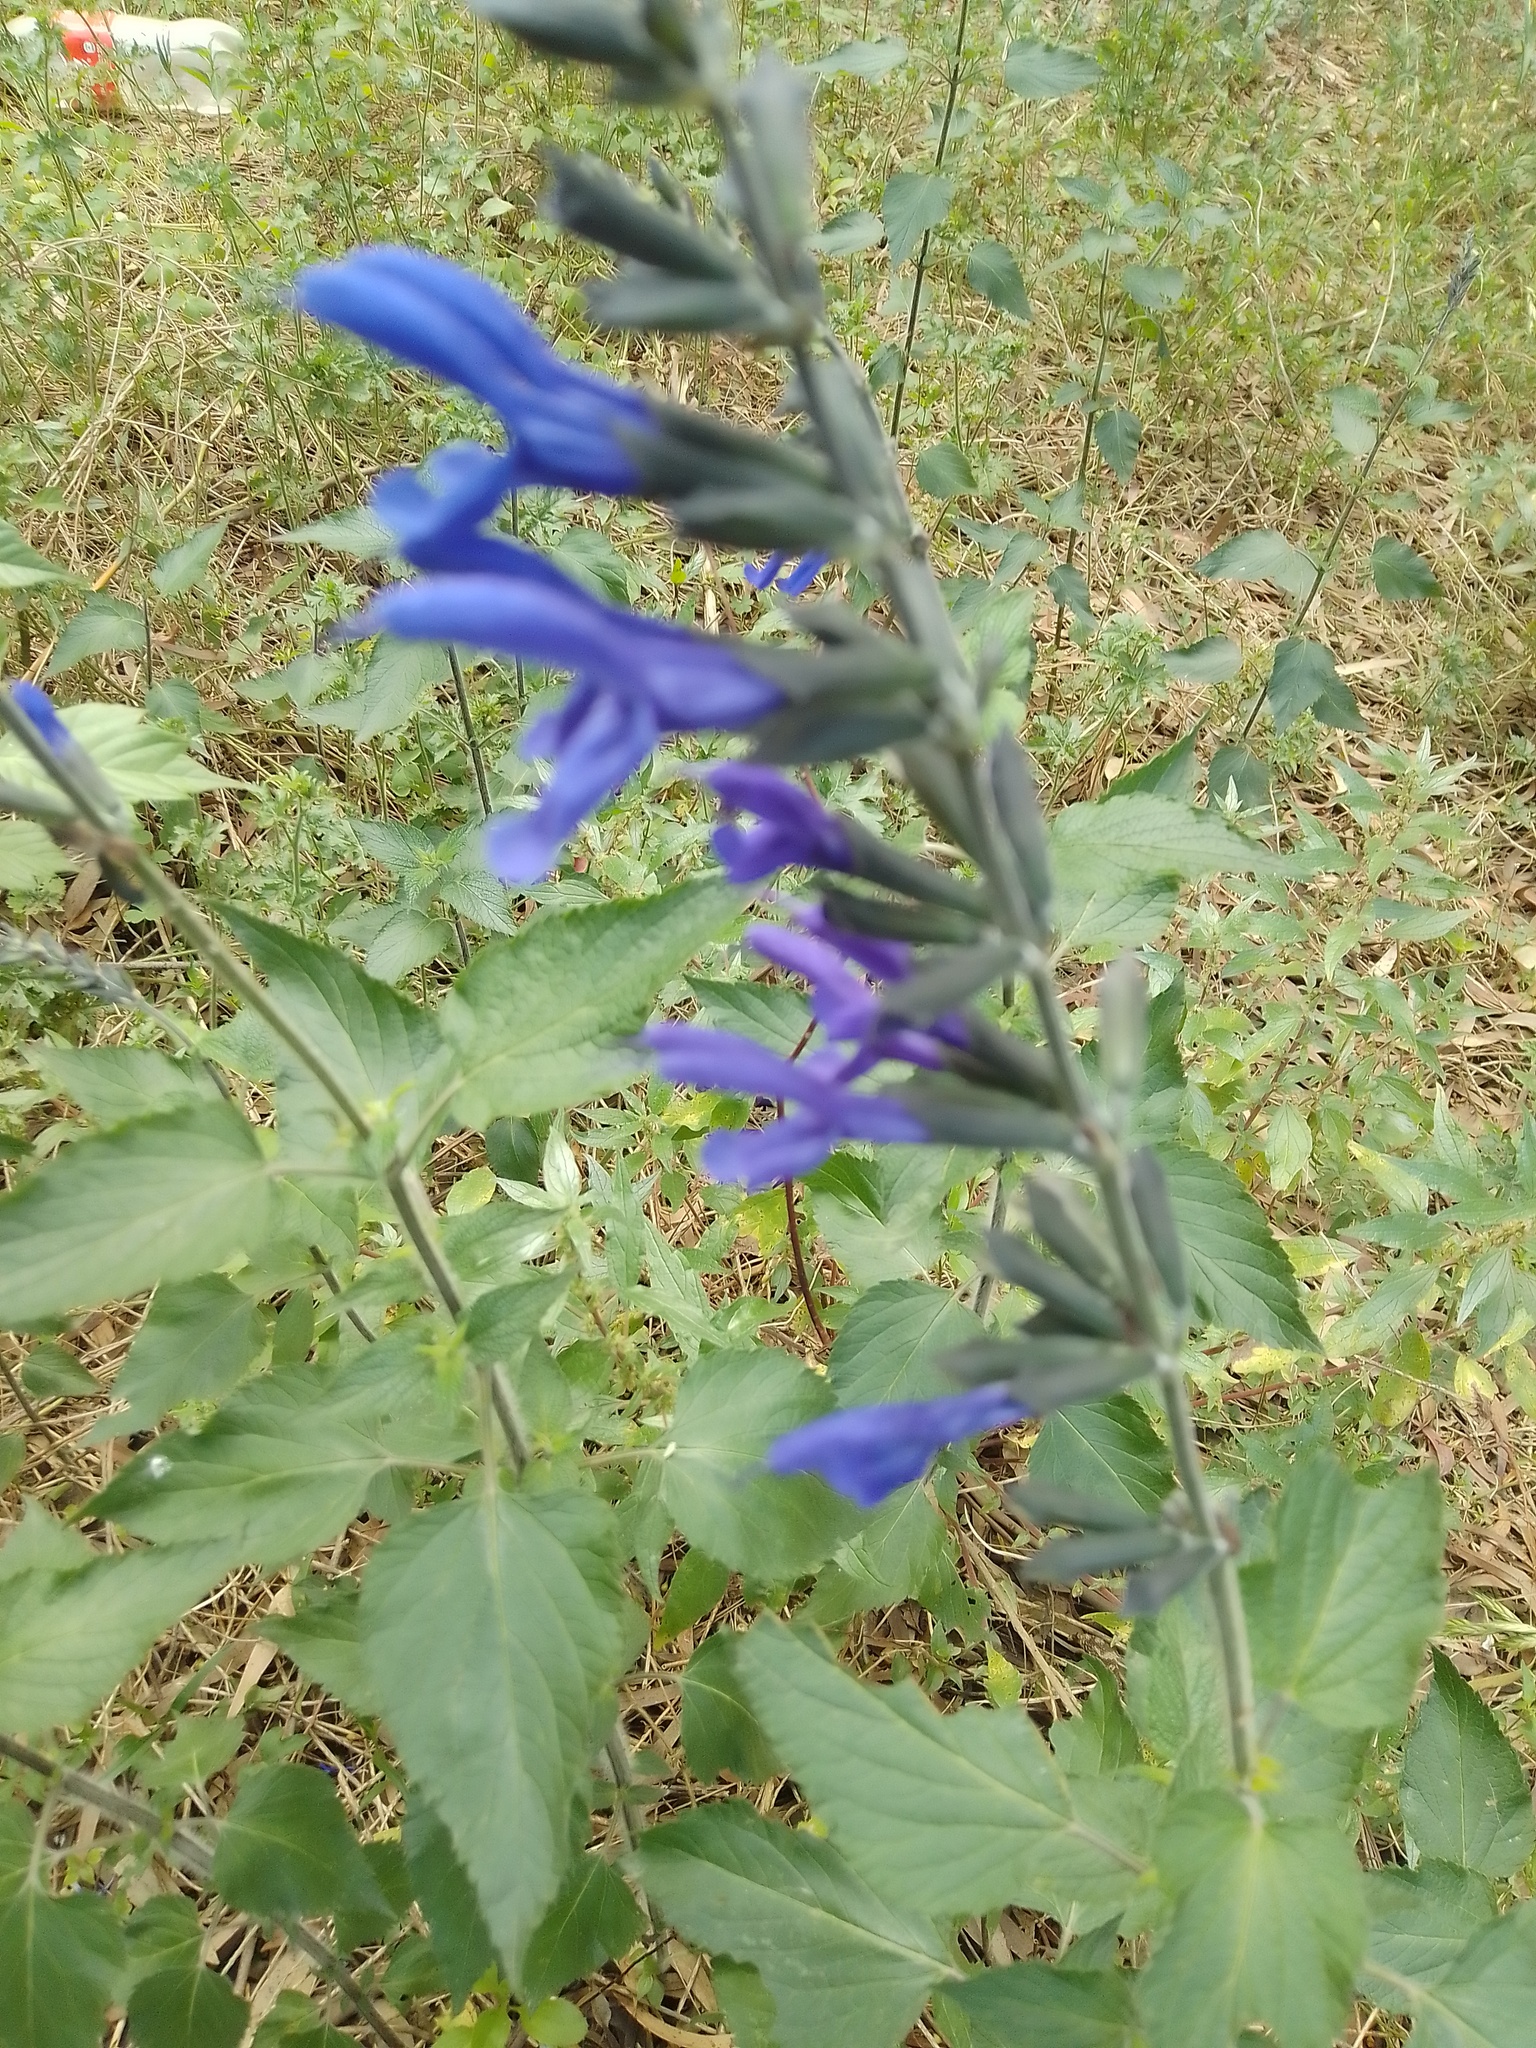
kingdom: Plantae
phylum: Tracheophyta
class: Magnoliopsida
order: Lamiales
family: Lamiaceae
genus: Salvia
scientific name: Salvia guaranitica
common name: Anise-scented sage
